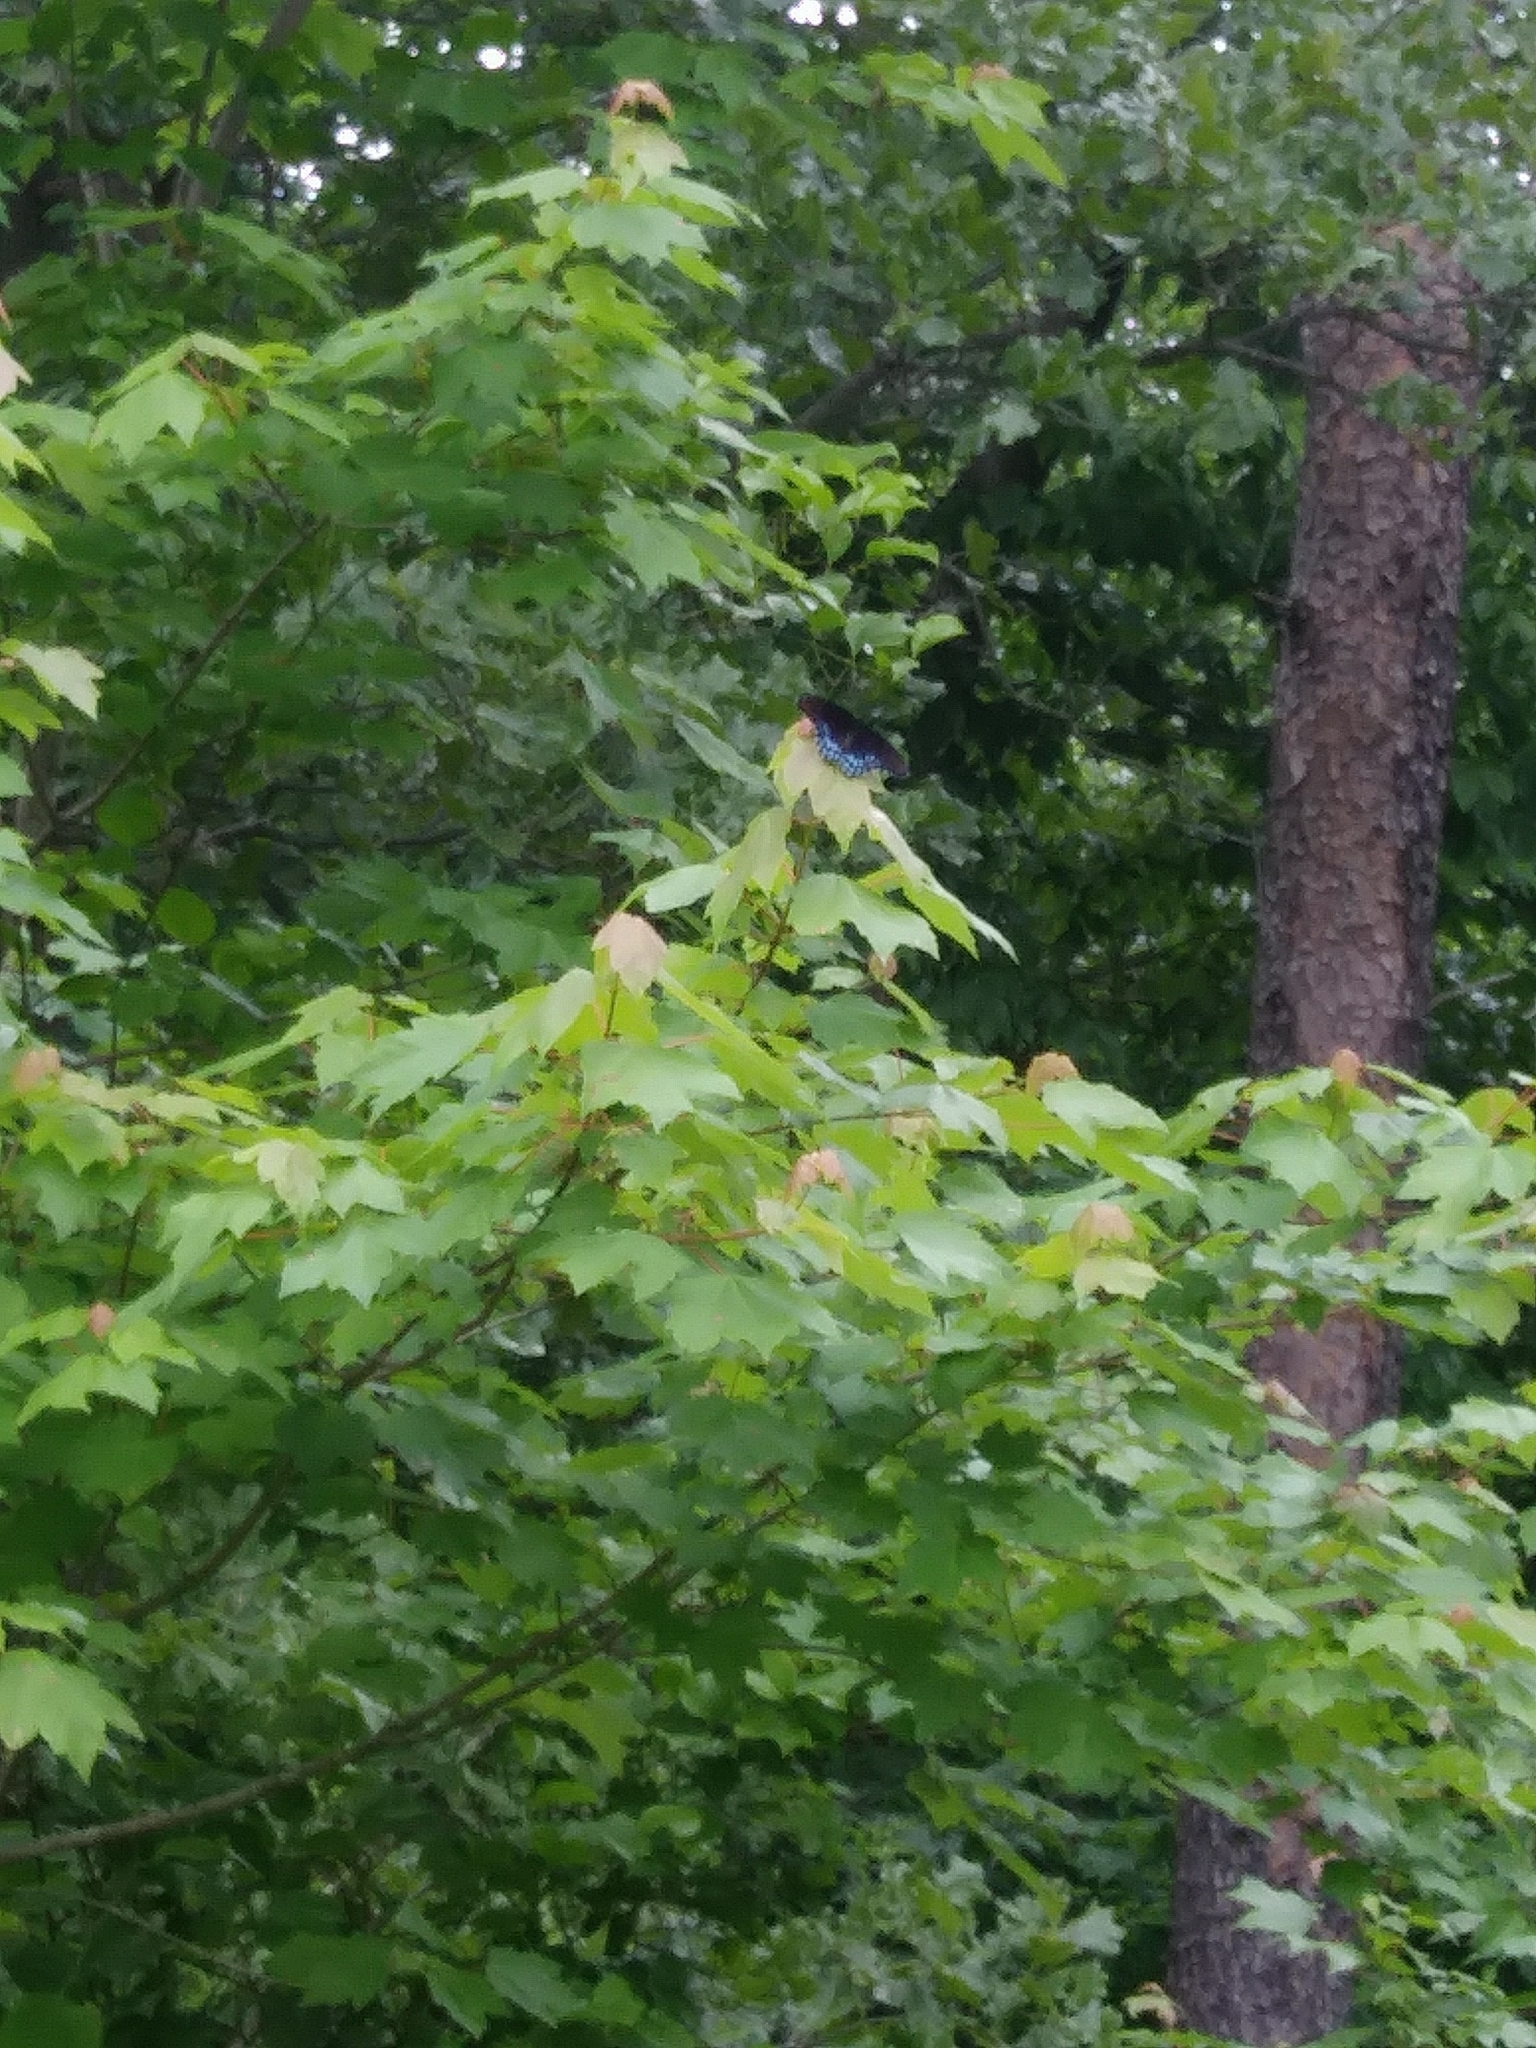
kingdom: Animalia
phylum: Arthropoda
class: Insecta
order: Lepidoptera
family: Nymphalidae
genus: Limenitis
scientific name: Limenitis astyanax
